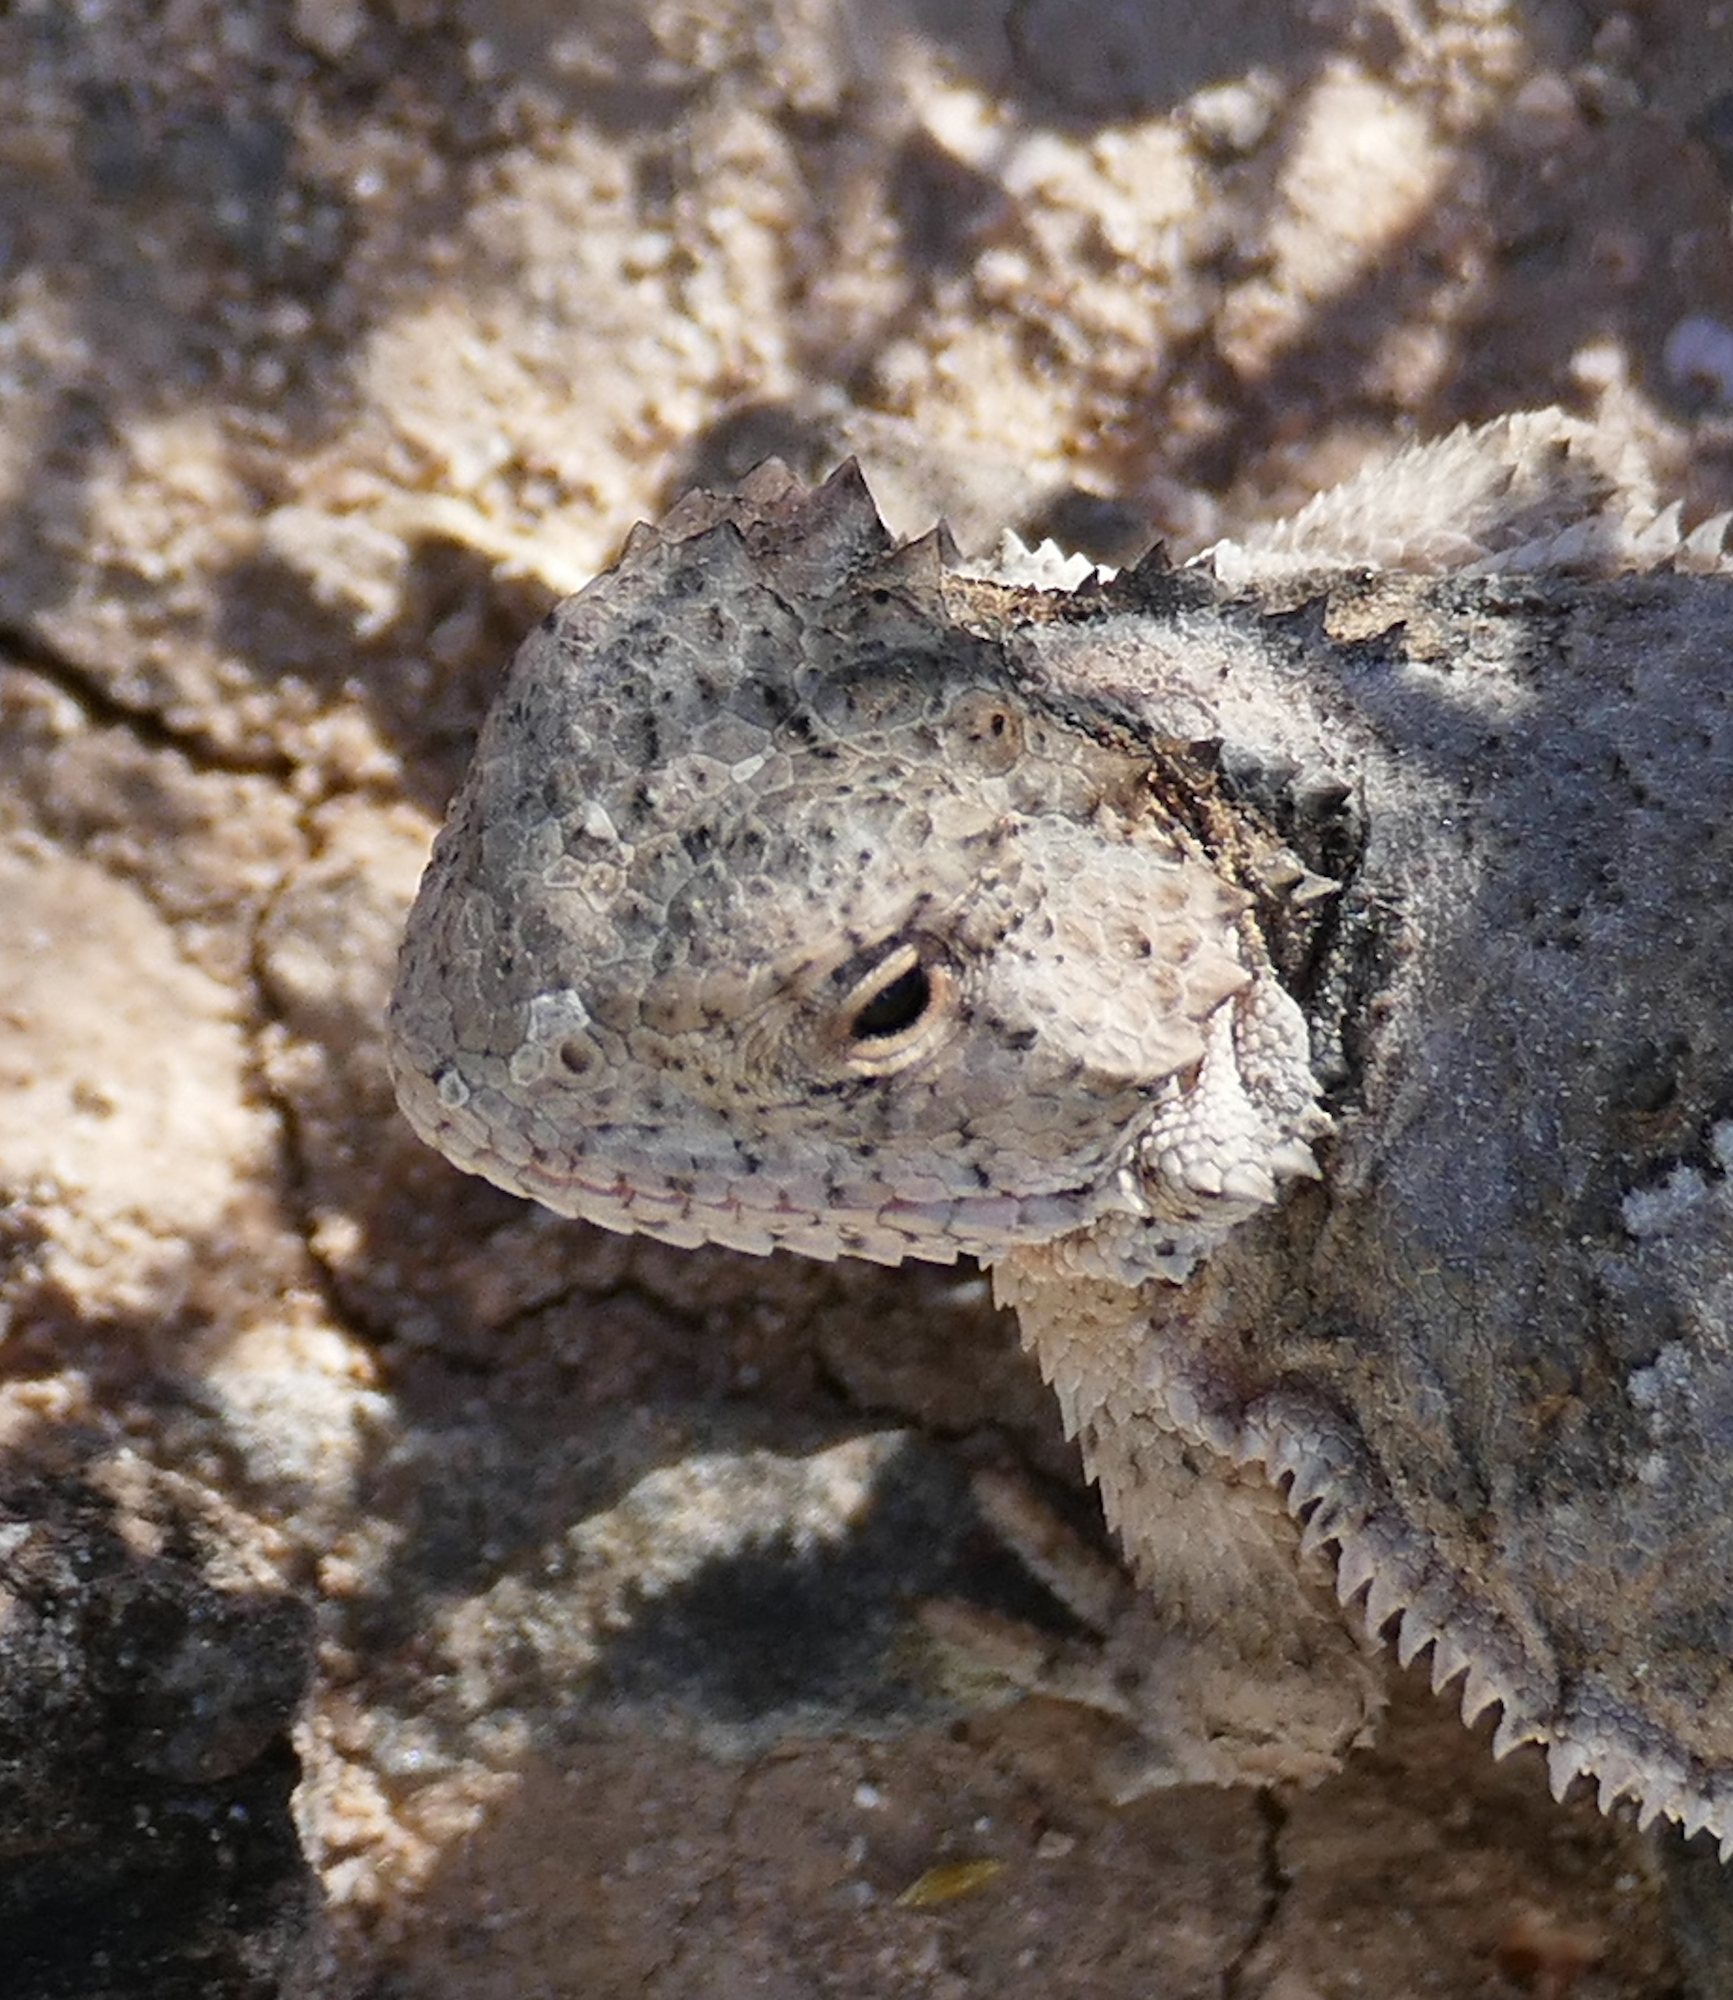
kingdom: Animalia
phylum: Chordata
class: Squamata
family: Phrynosomatidae
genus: Phrynosoma
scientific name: Phrynosoma hernandesi
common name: Greater short-horned lizard
